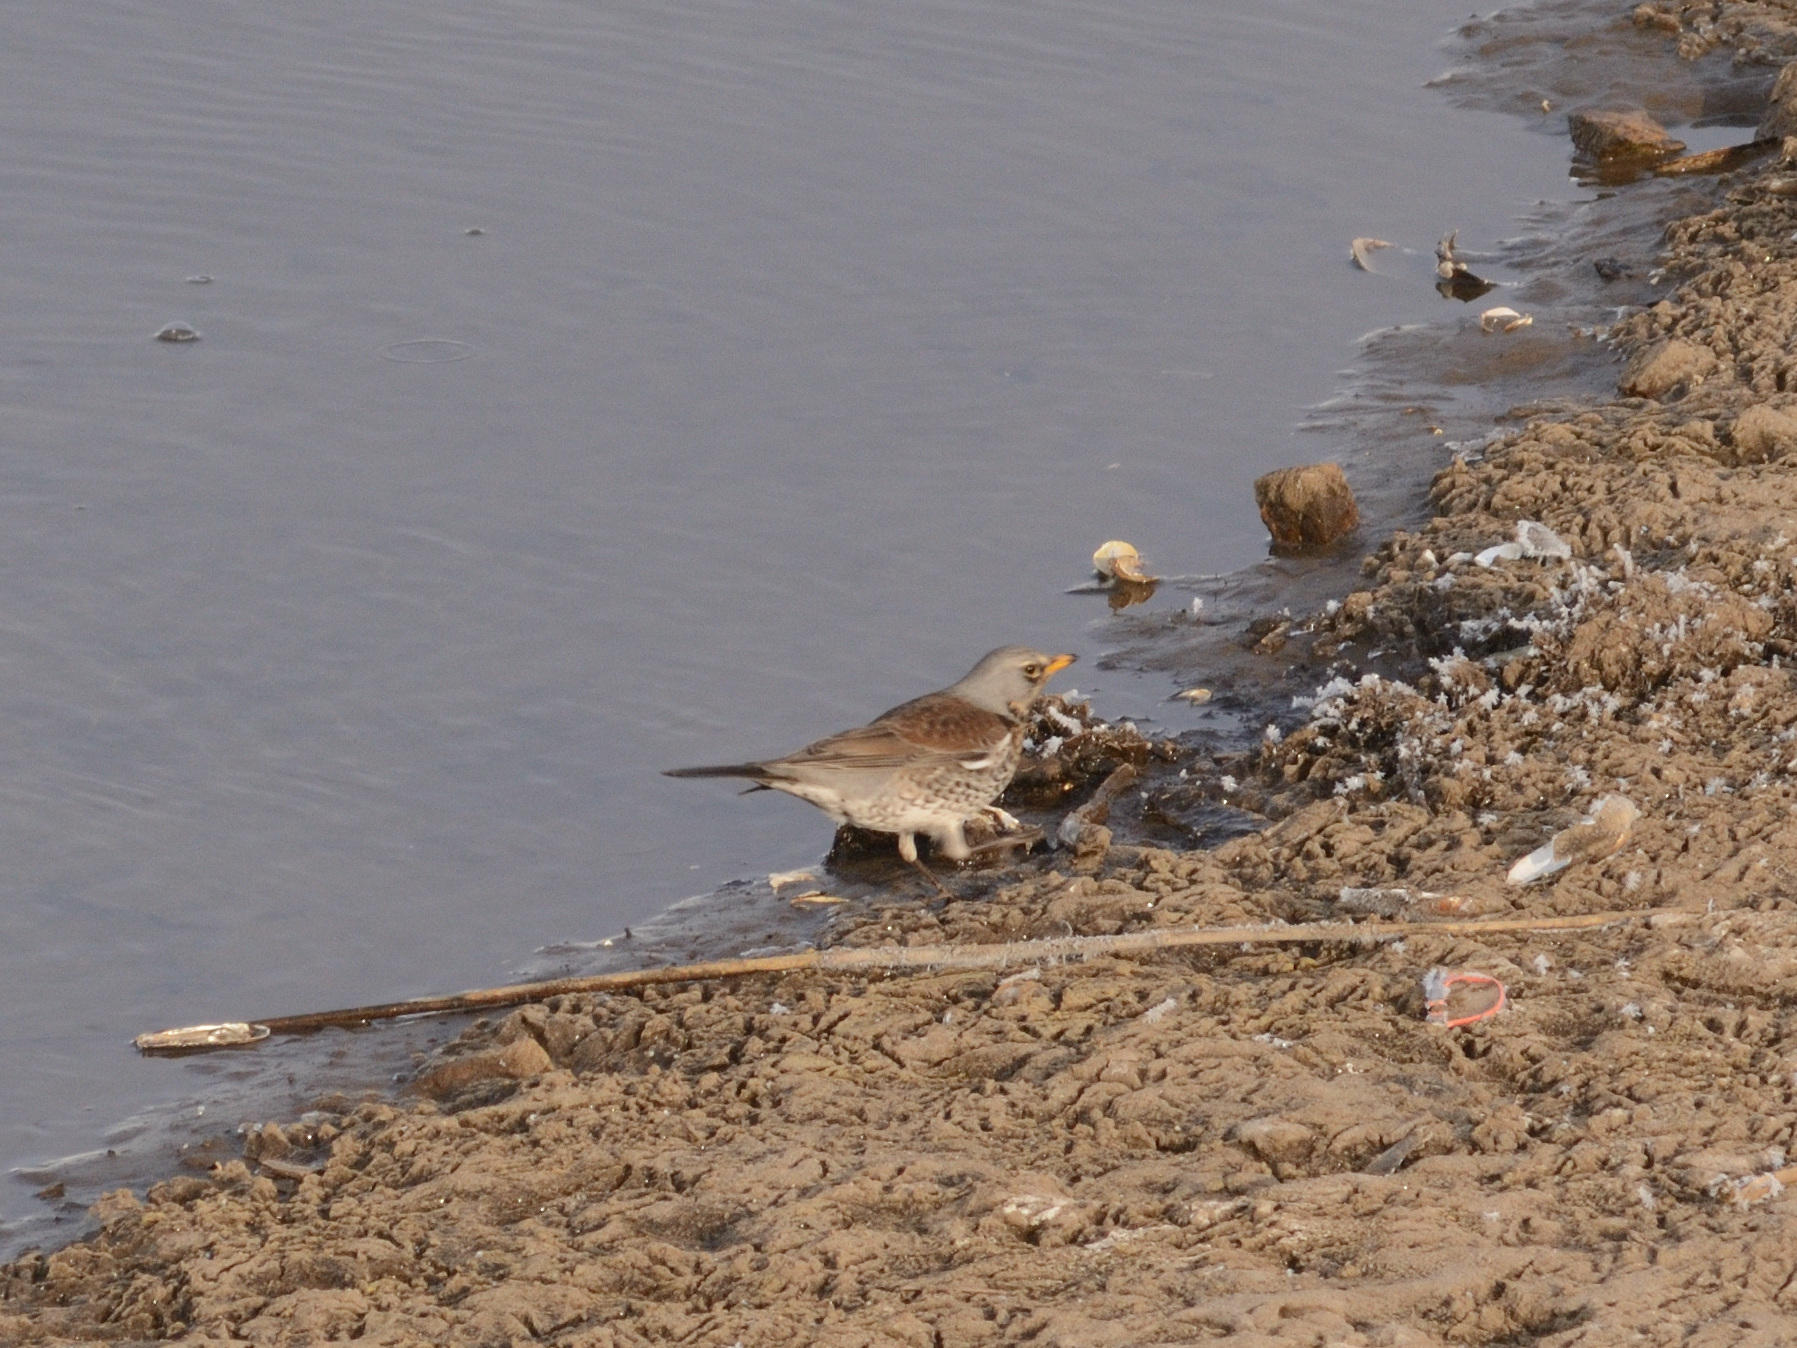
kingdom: Animalia
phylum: Chordata
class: Aves
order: Passeriformes
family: Turdidae
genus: Turdus
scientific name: Turdus pilaris
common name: Fieldfare
